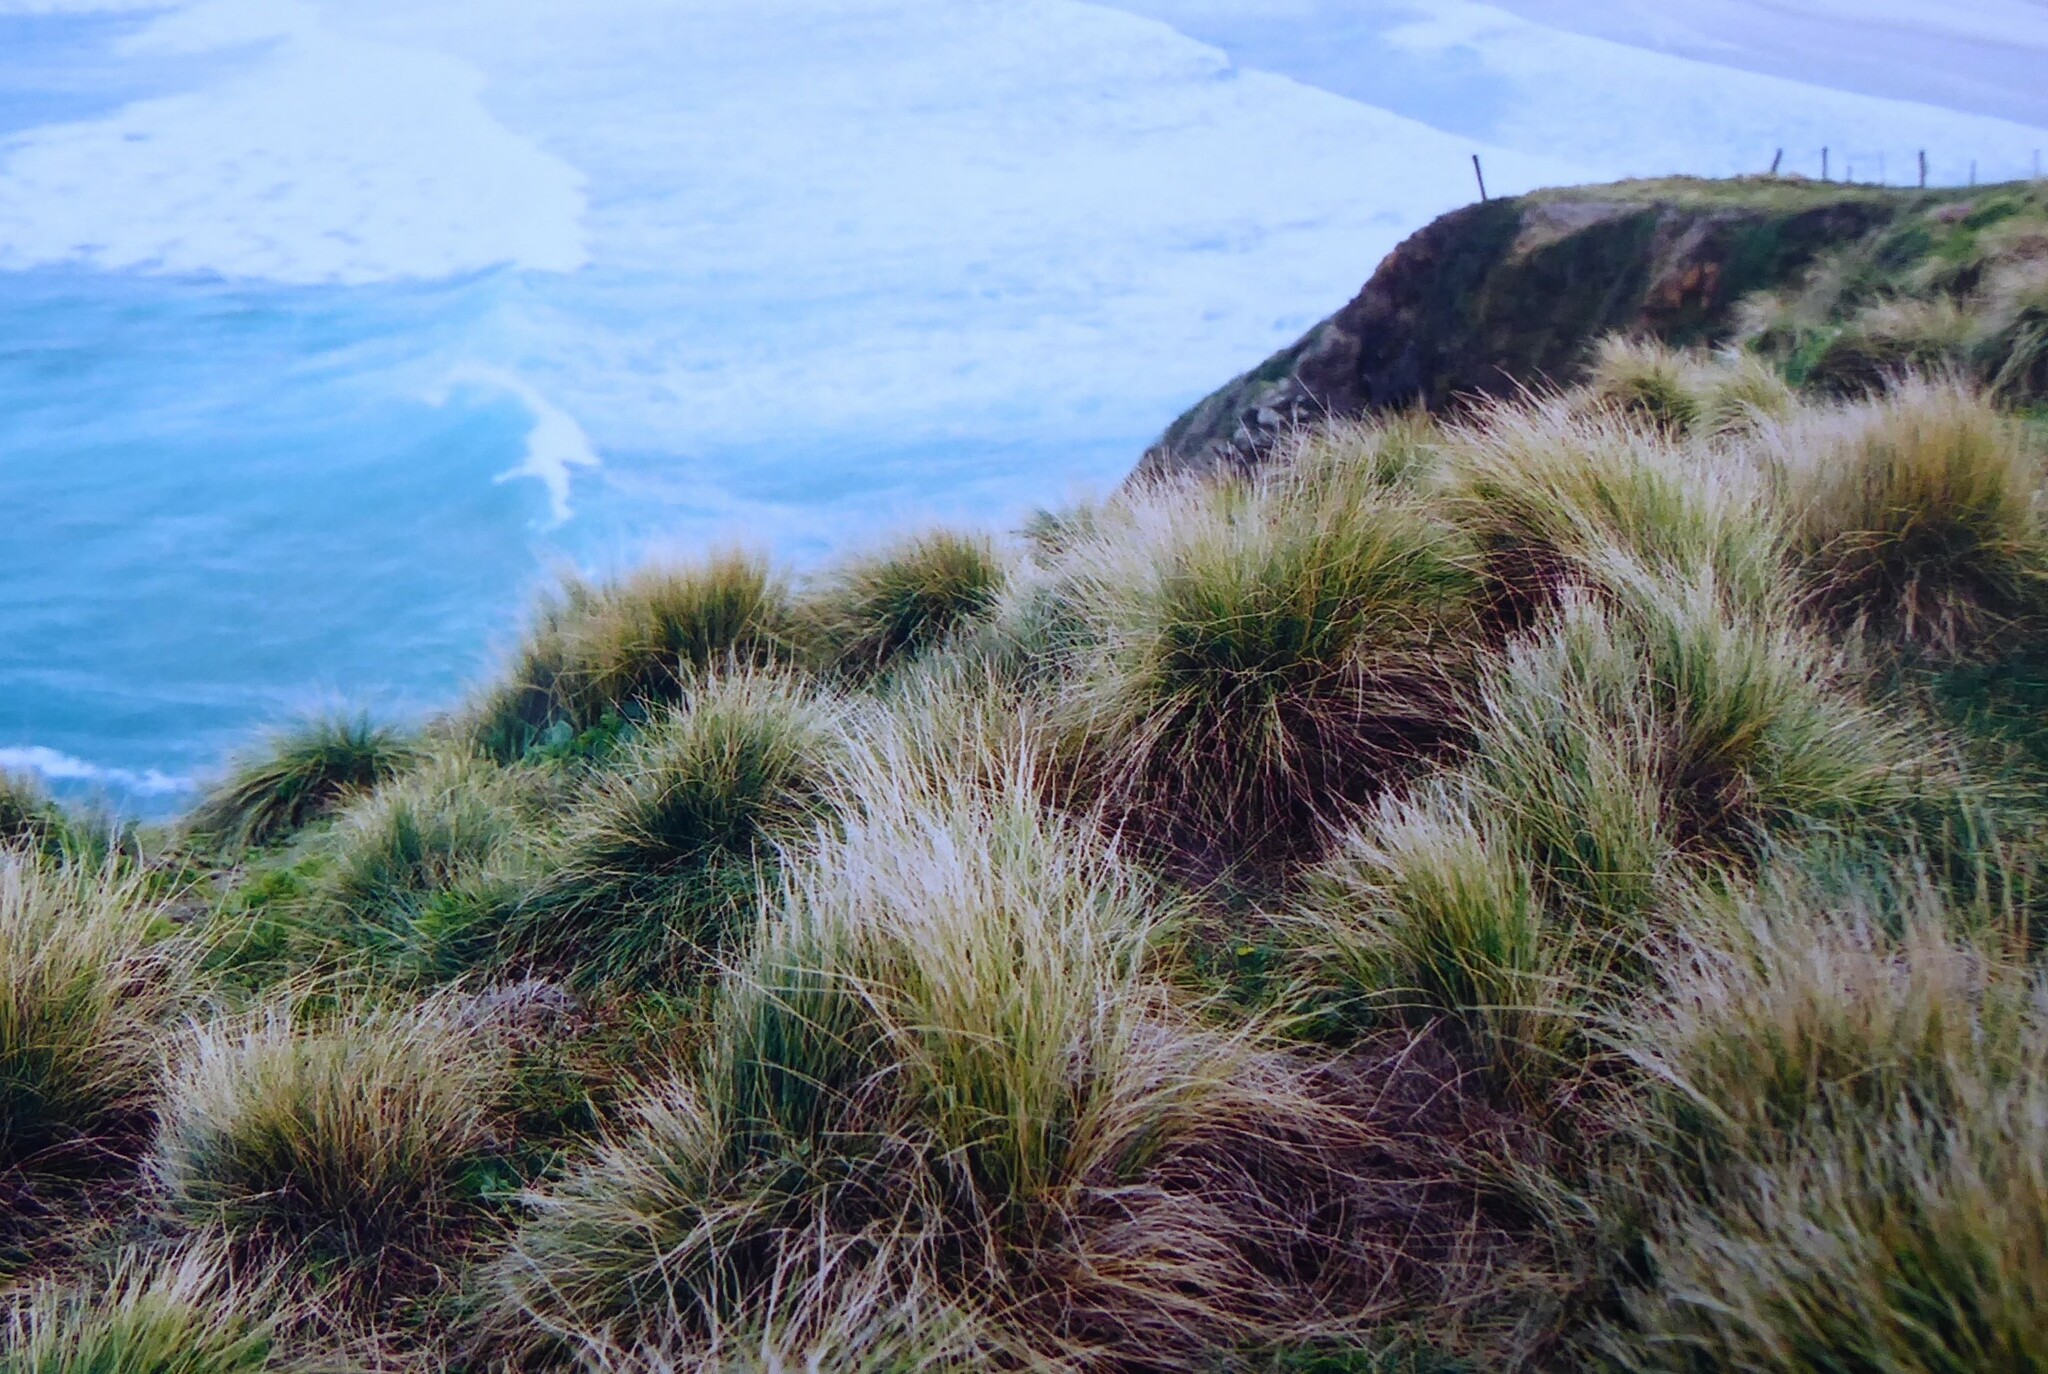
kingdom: Plantae
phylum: Tracheophyta
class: Liliopsida
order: Poales
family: Poaceae
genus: Poa
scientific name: Poa cita
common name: Silver tussock
